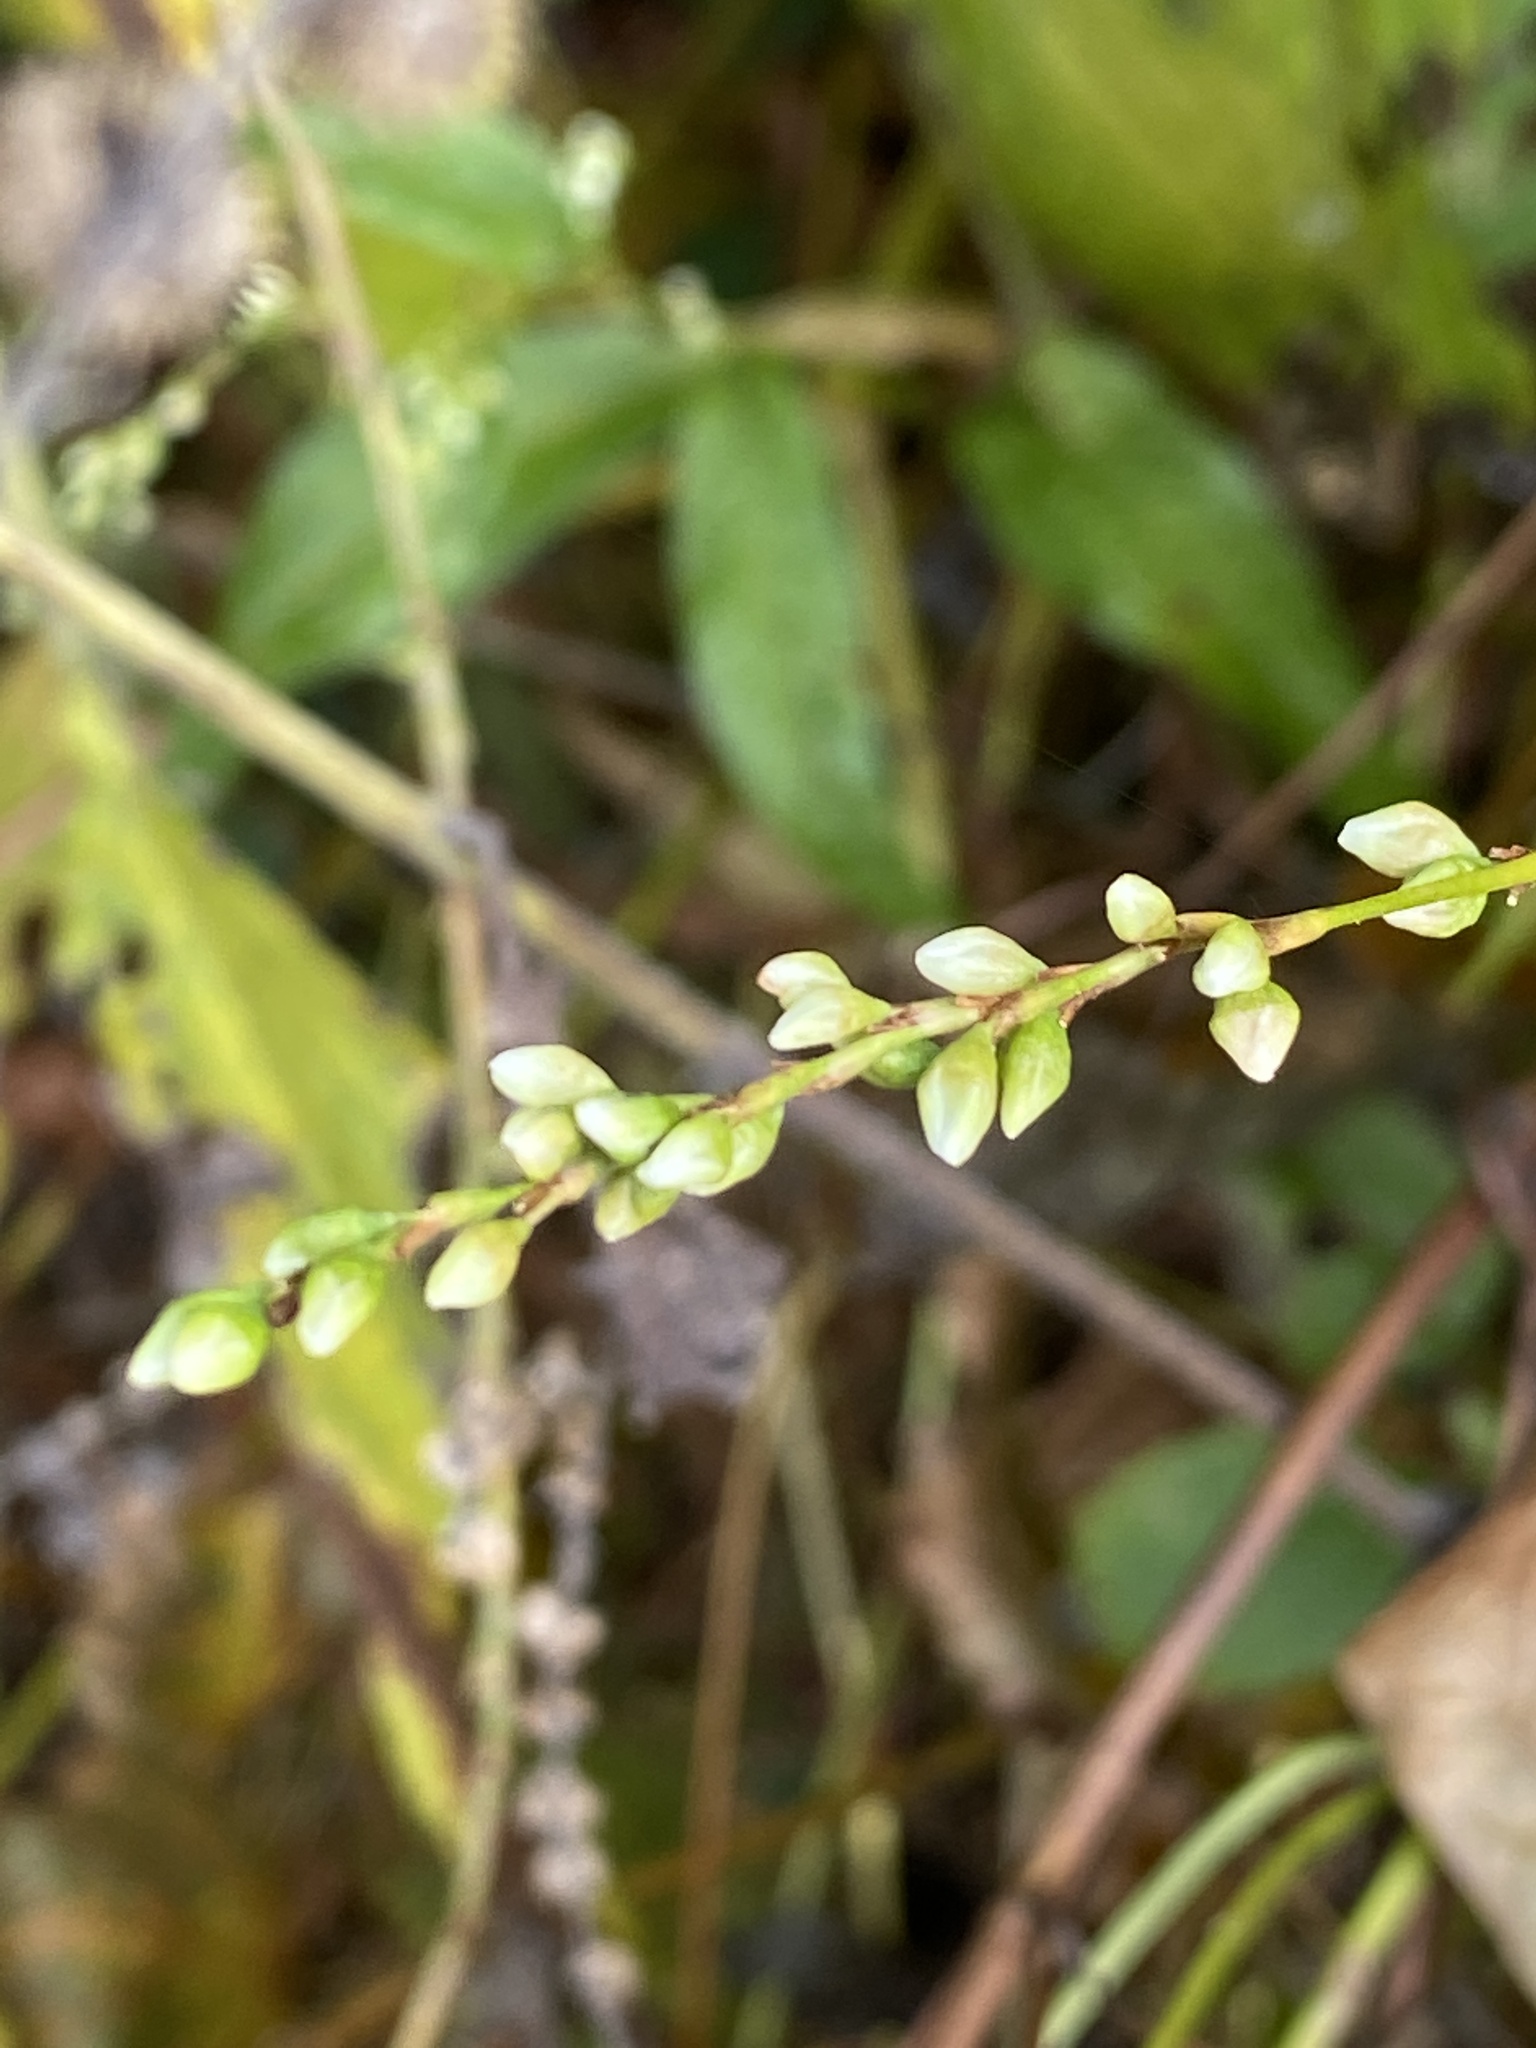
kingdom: Plantae
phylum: Tracheophyta
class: Magnoliopsida
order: Caryophyllales
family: Polygonaceae
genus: Persicaria
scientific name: Persicaria punctata
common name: Dotted smartweed
